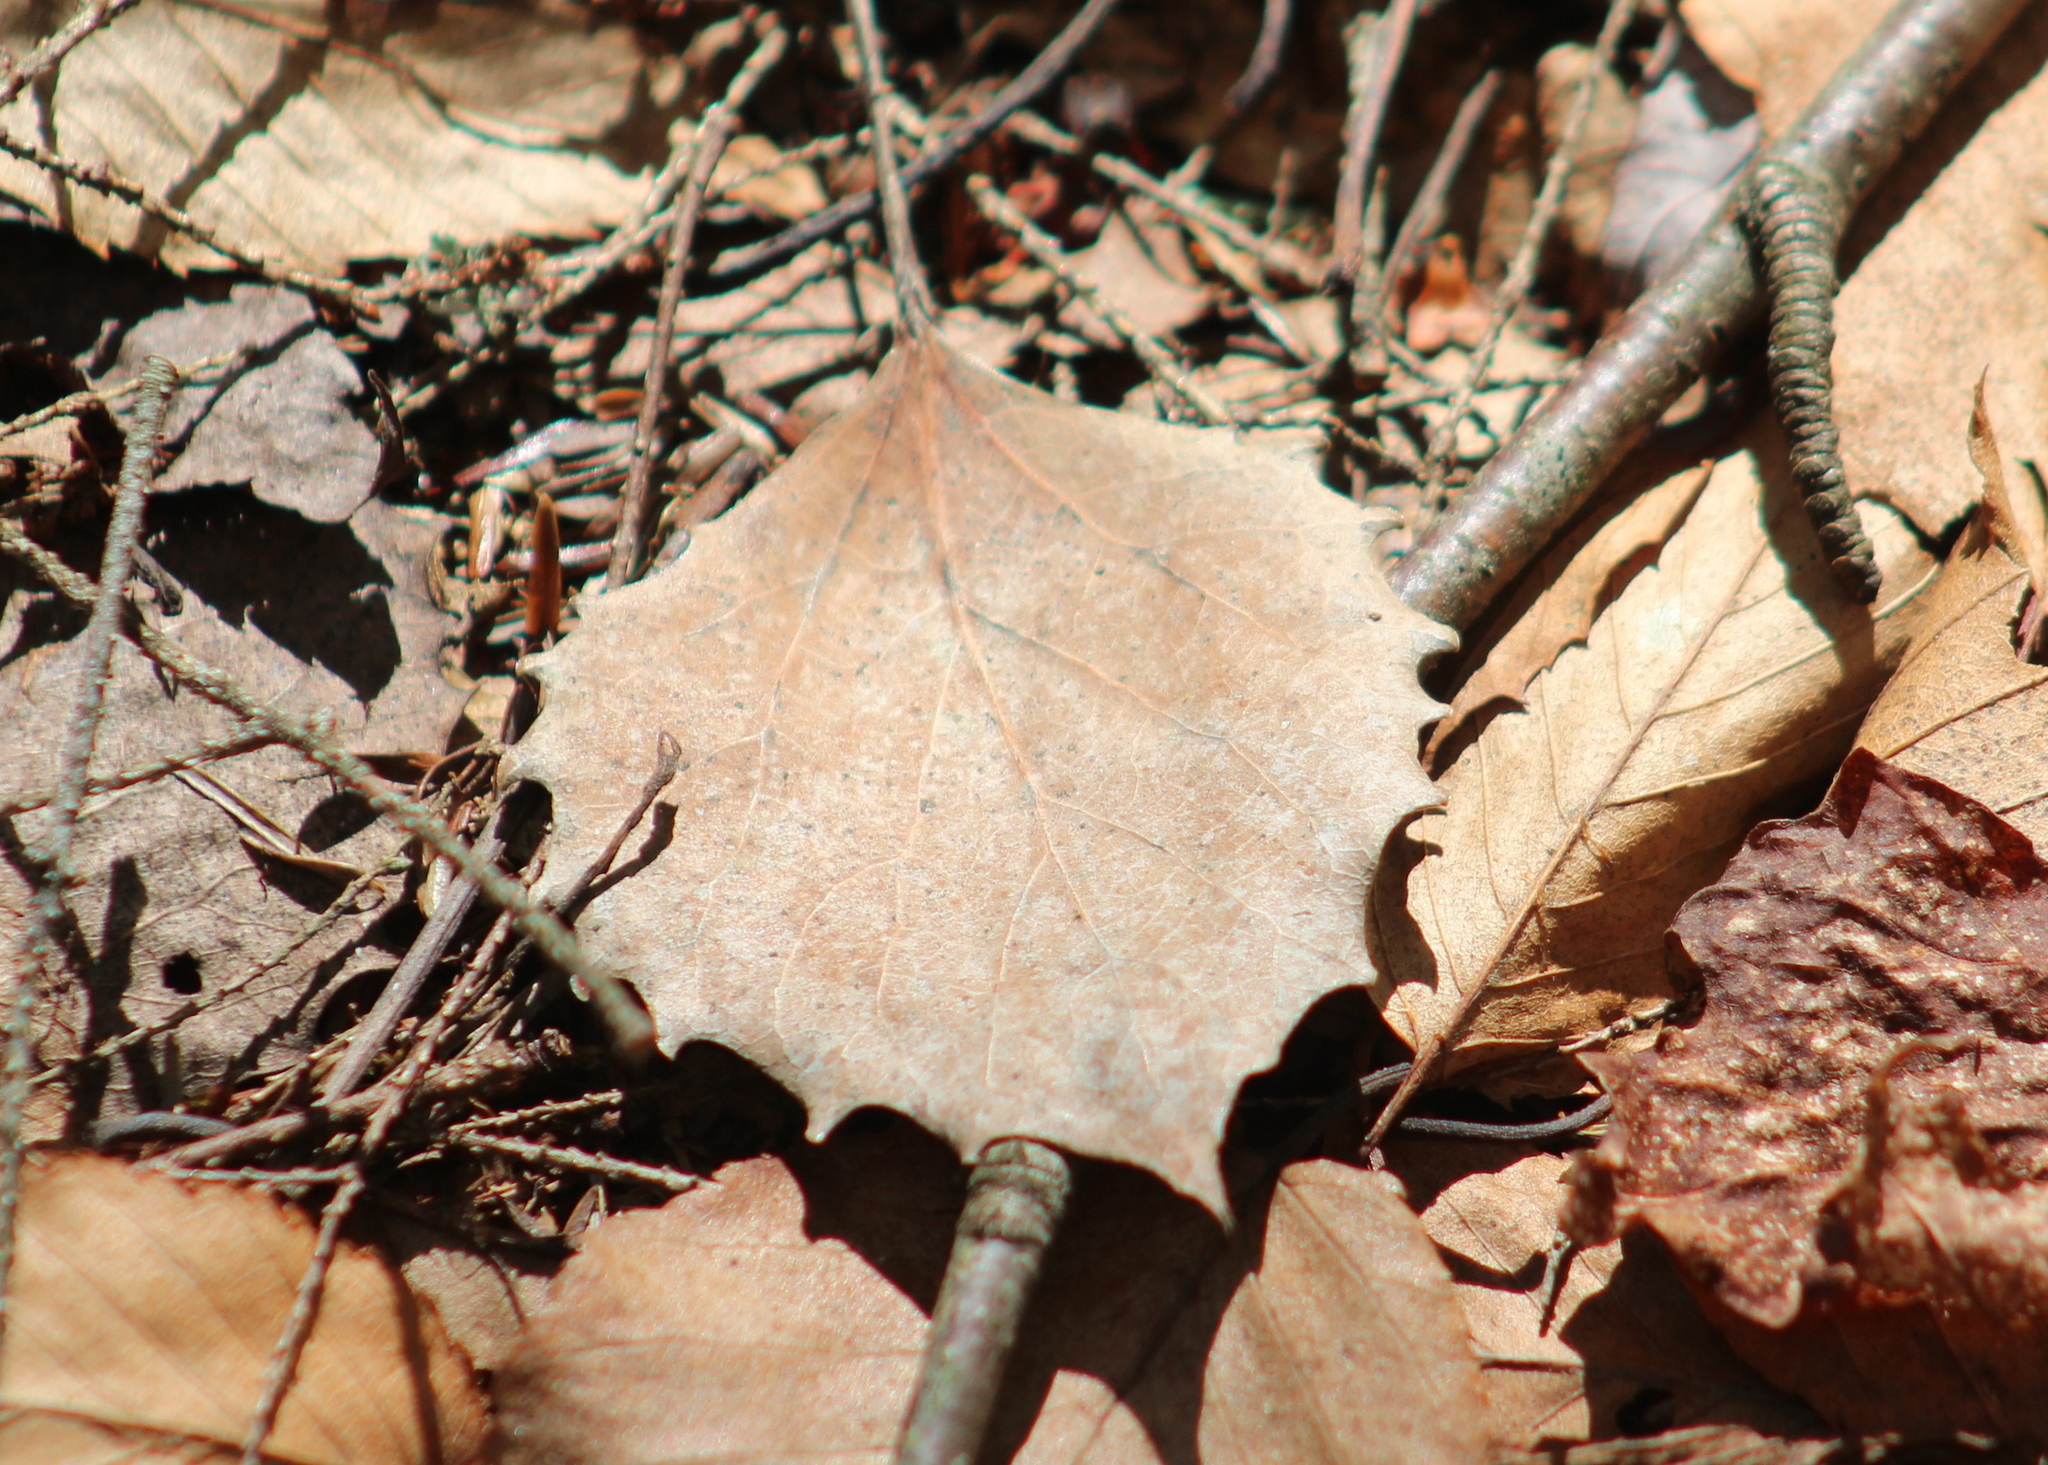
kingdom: Plantae
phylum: Tracheophyta
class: Magnoliopsida
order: Malpighiales
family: Salicaceae
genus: Populus
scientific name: Populus grandidentata
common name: Bigtooth aspen
